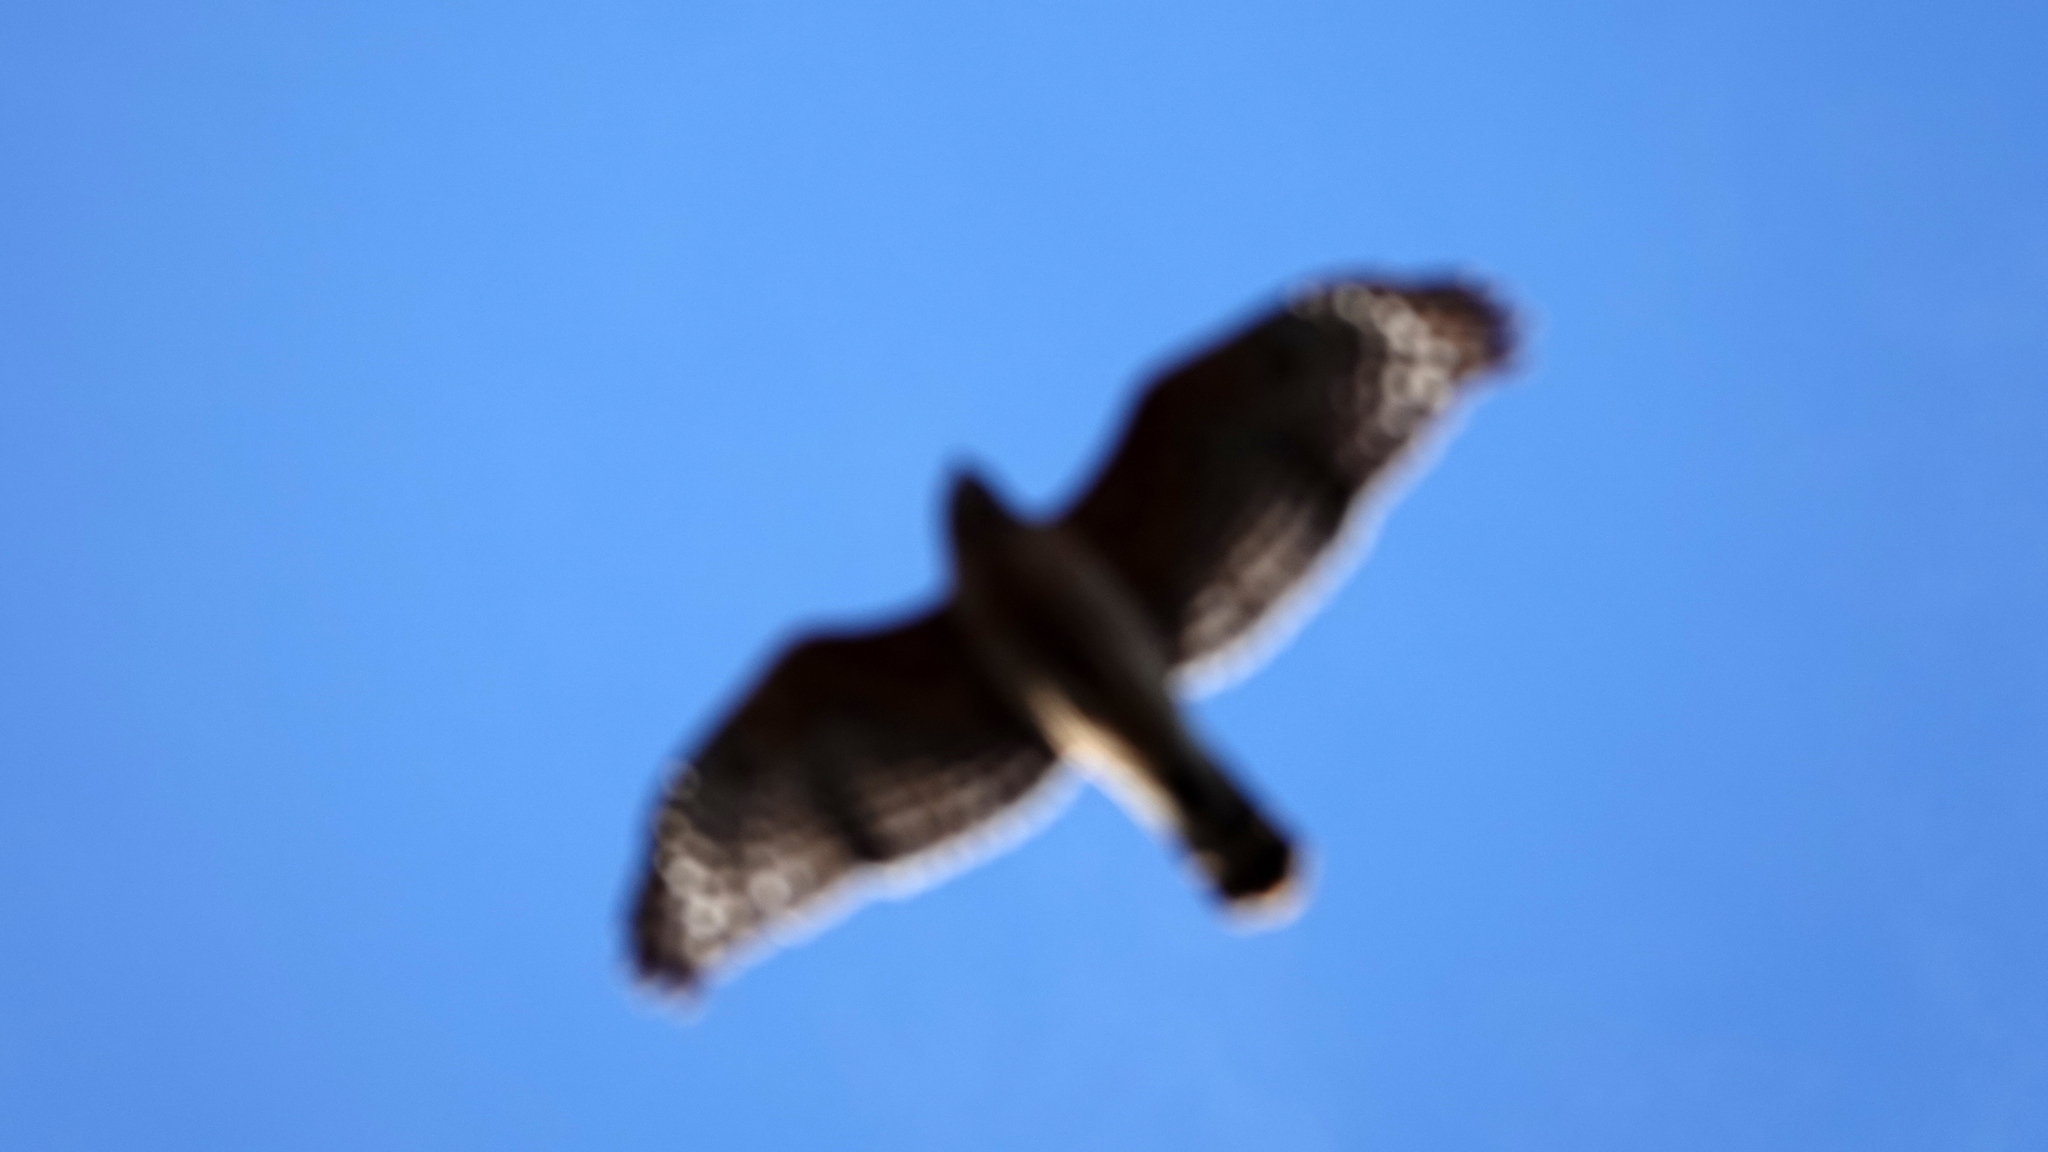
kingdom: Animalia
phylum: Chordata
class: Aves
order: Accipitriformes
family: Accipitridae
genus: Buteo
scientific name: Buteo lineatus
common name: Red-shouldered hawk
